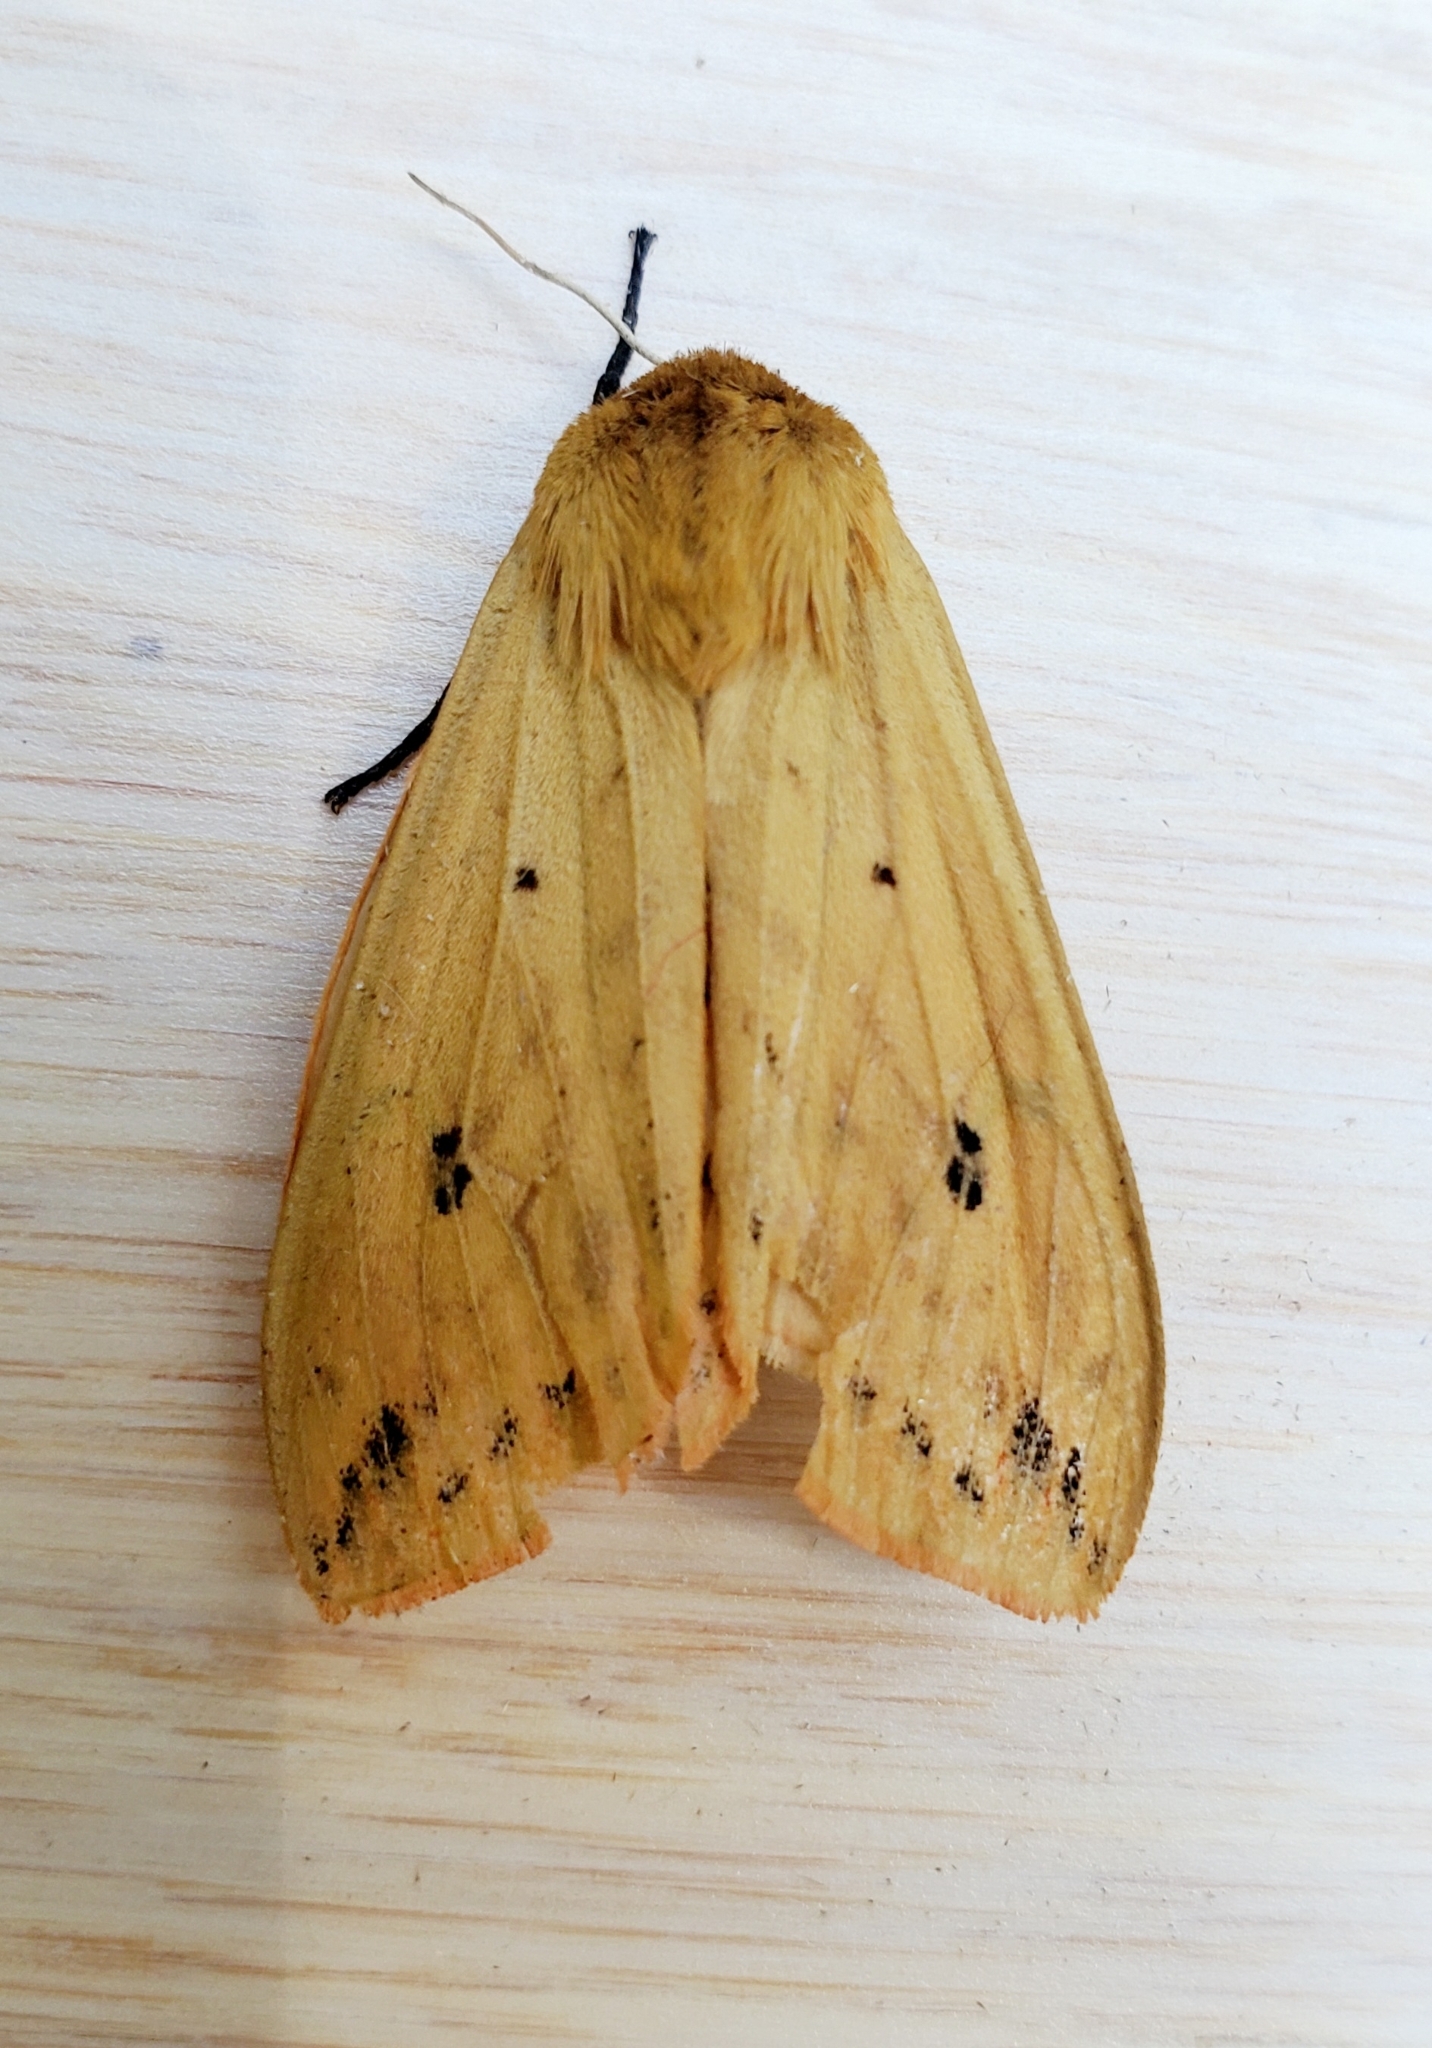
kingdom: Animalia
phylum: Arthropoda
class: Insecta
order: Lepidoptera
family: Erebidae
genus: Pyrrharctia
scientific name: Pyrrharctia isabella
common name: Isabella tiger moth
